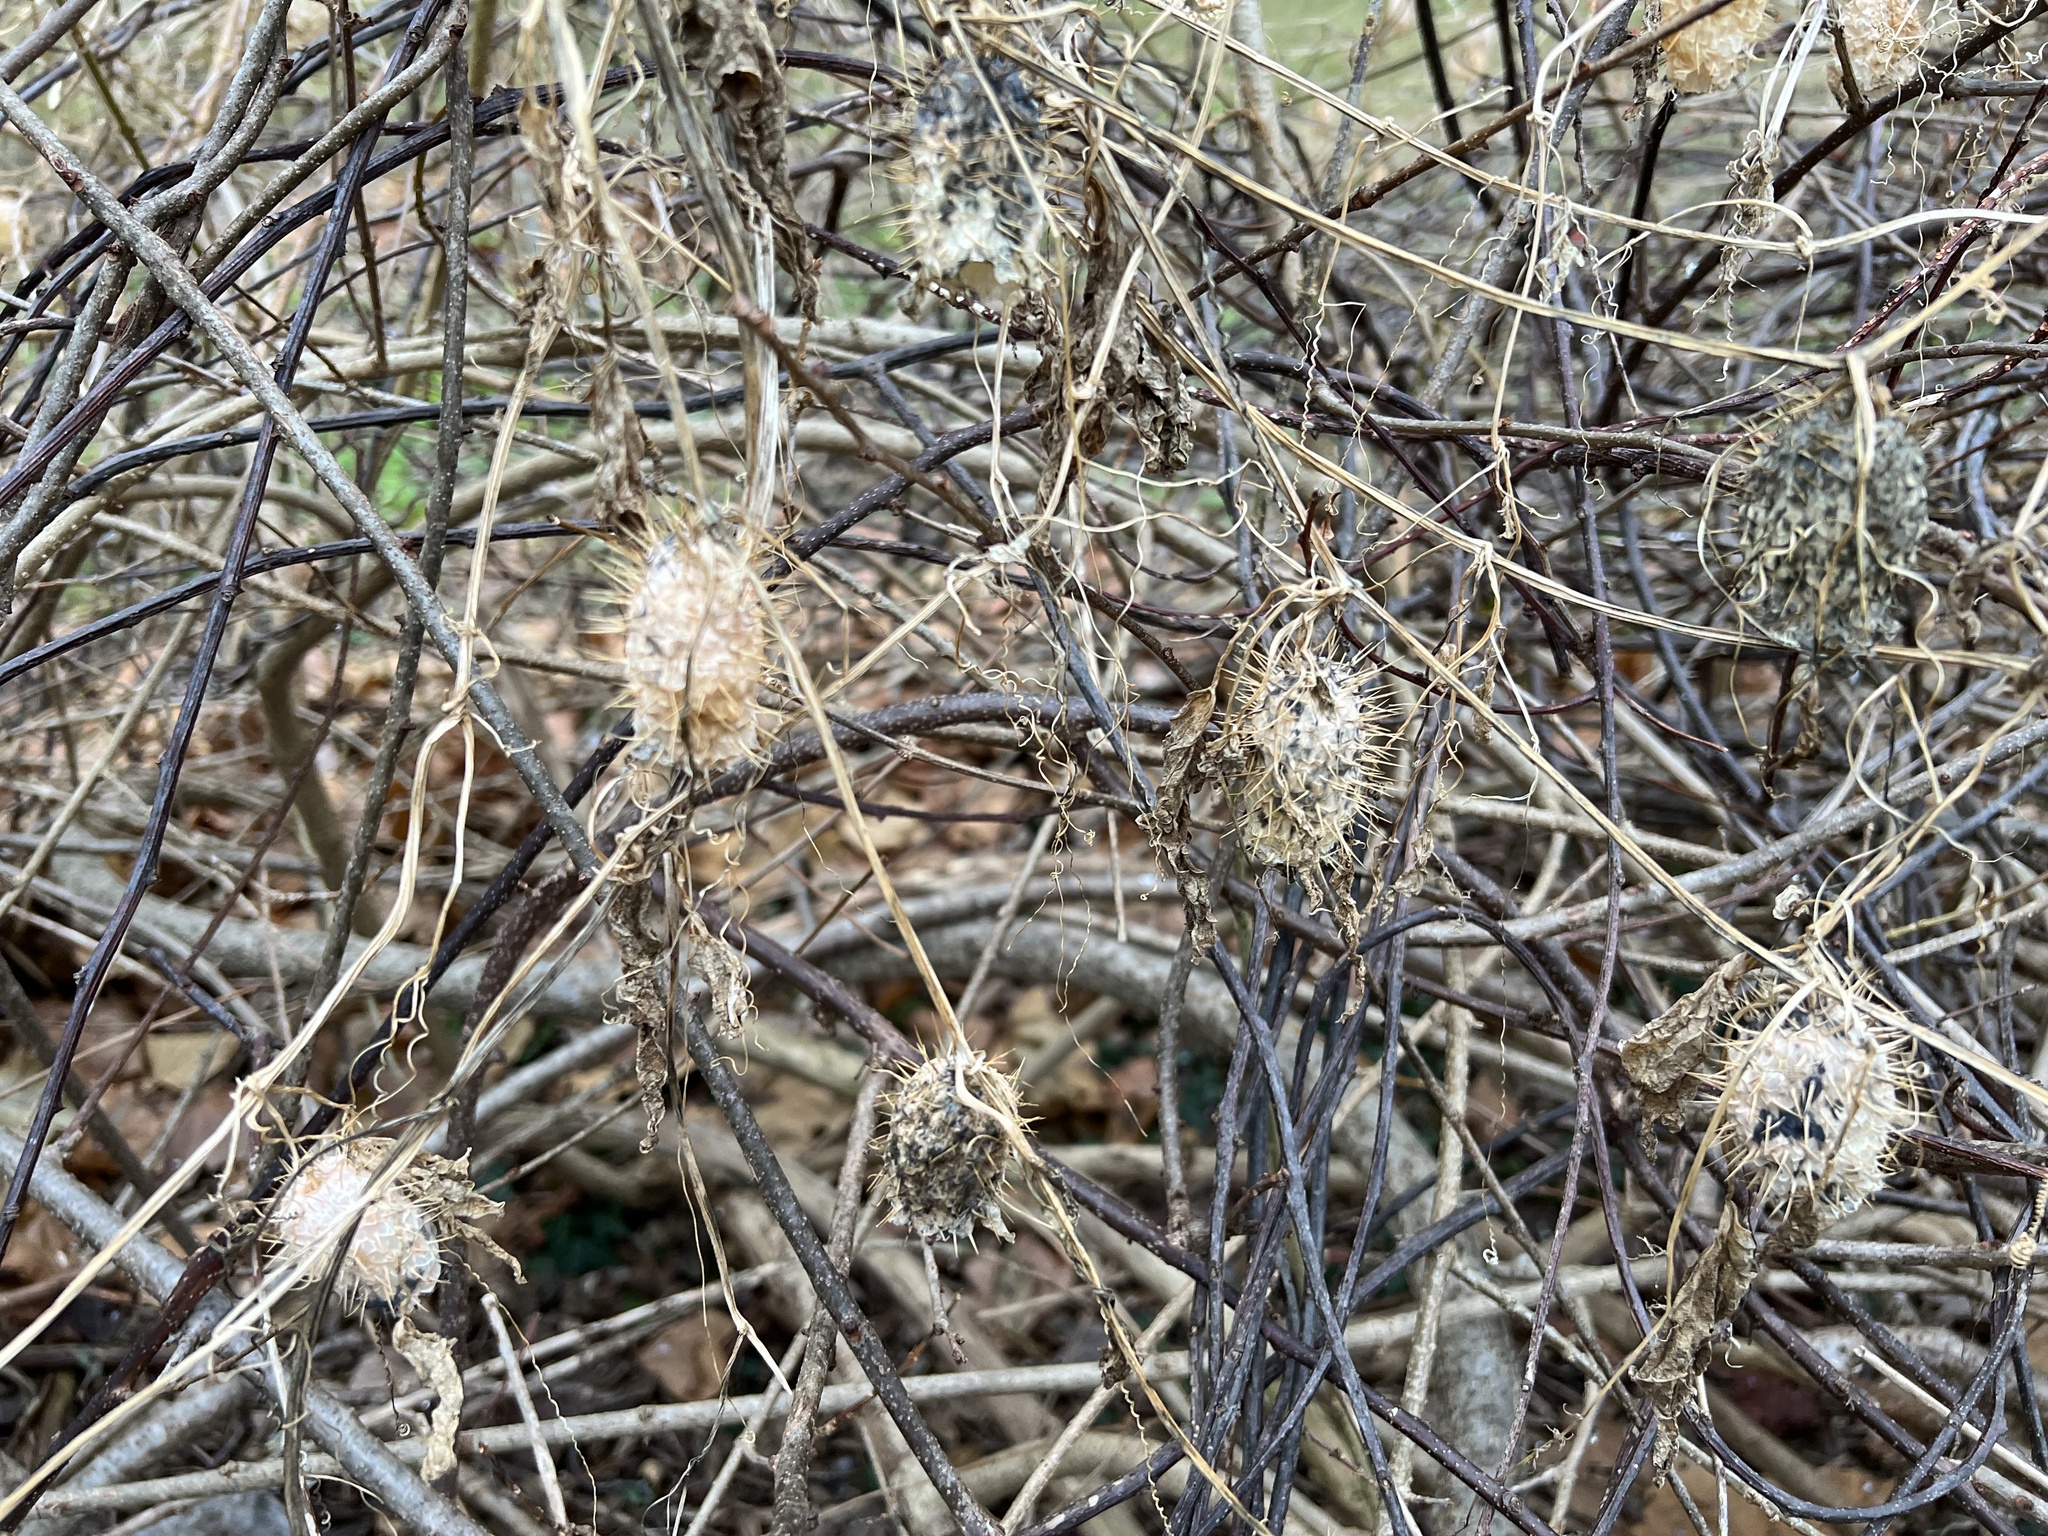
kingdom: Plantae
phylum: Tracheophyta
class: Magnoliopsida
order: Cucurbitales
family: Cucurbitaceae
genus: Echinocystis
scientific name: Echinocystis lobata
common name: Wild cucumber
